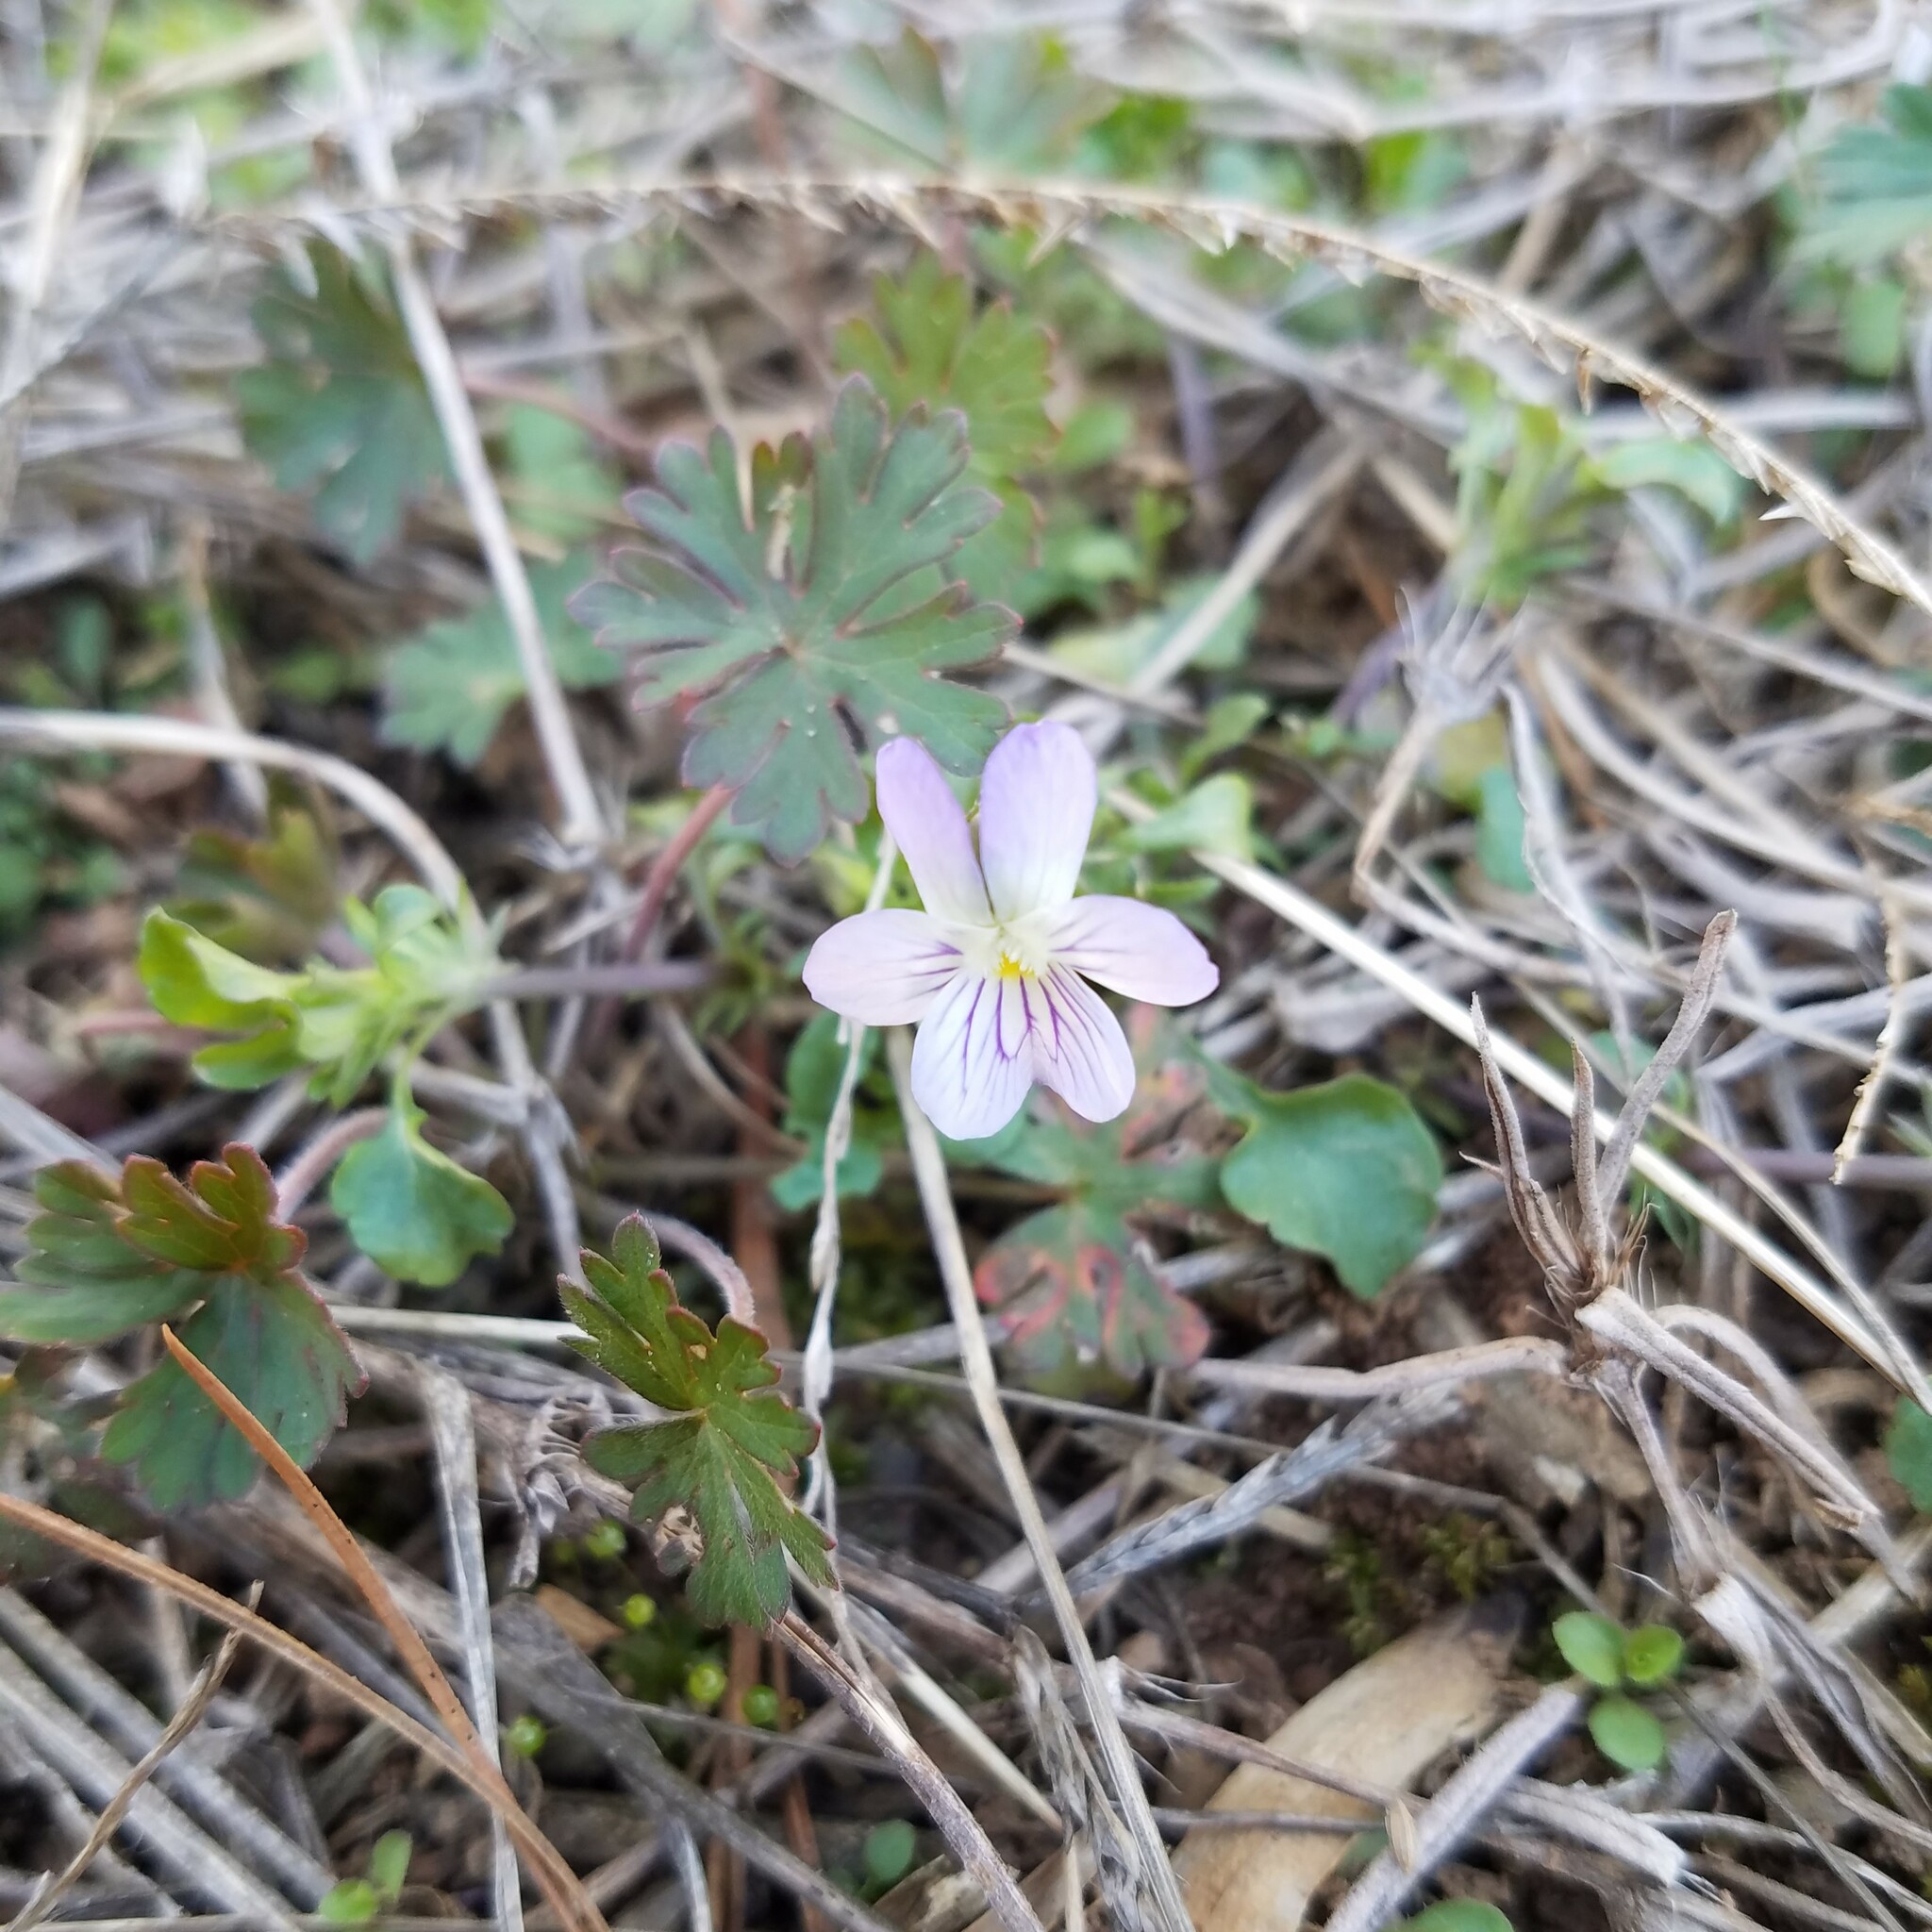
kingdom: Plantae
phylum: Tracheophyta
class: Magnoliopsida
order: Malpighiales
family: Violaceae
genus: Viola
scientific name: Viola rafinesquei
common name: American field pansy
